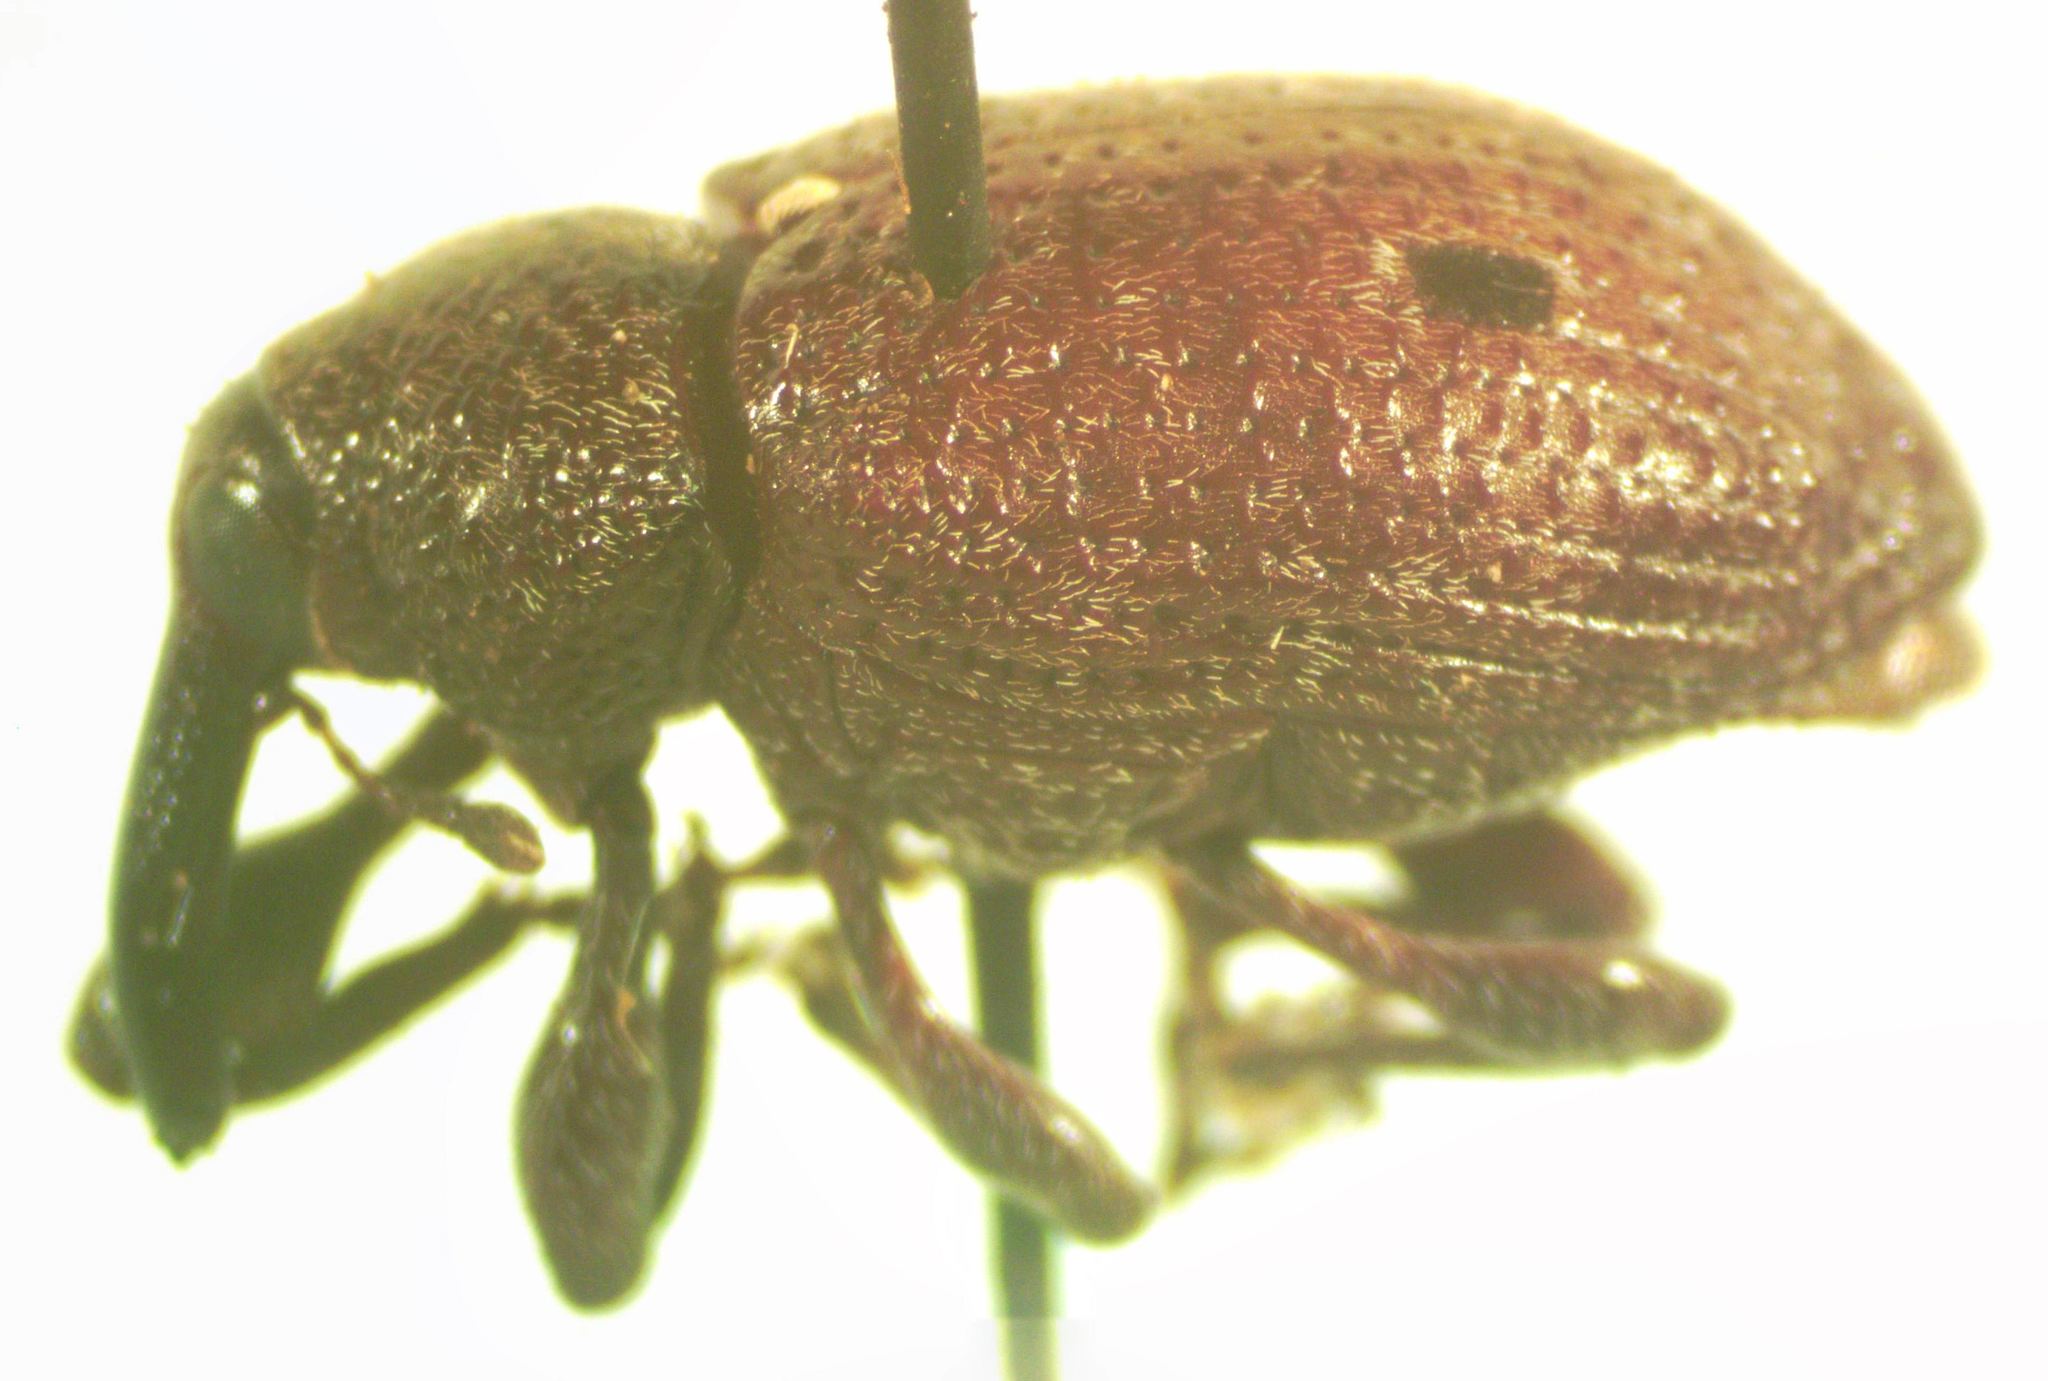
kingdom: Animalia
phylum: Arthropoda
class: Insecta
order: Coleoptera
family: Curculionidae
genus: Heilus
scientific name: Heilus bioculatus
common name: Gumbo limbo weevil
